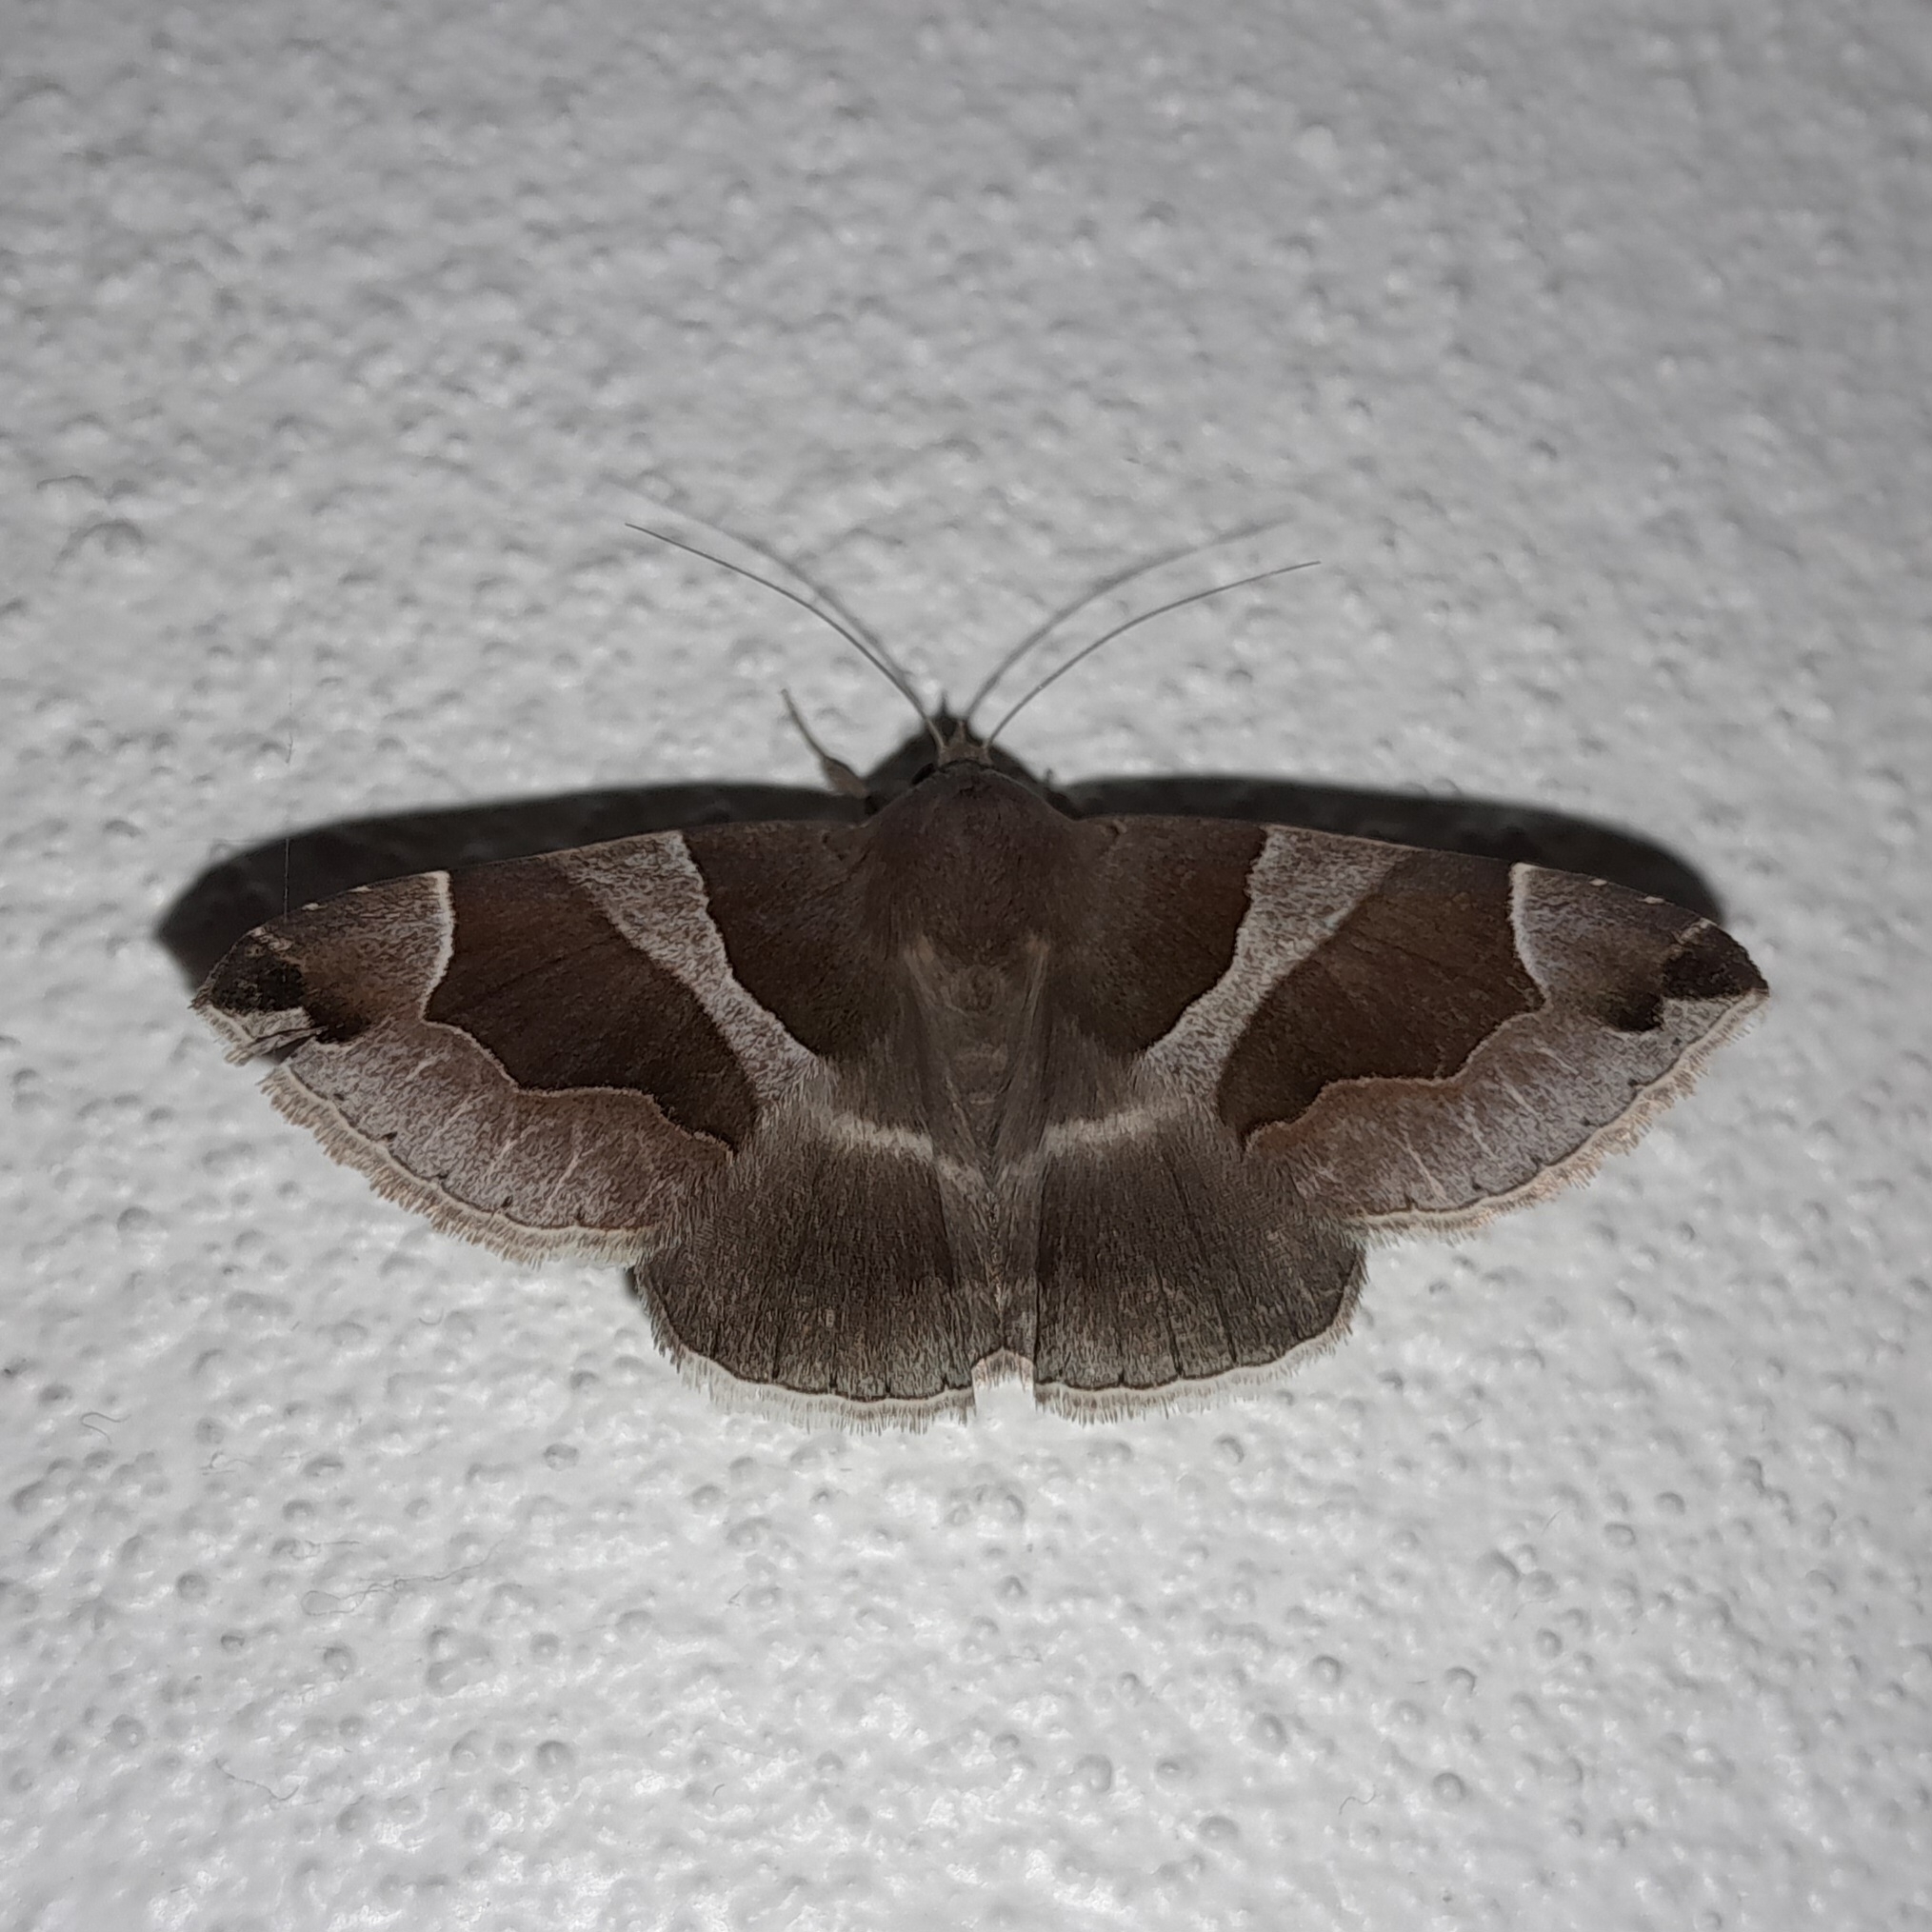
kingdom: Animalia
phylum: Arthropoda
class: Insecta
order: Lepidoptera
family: Erebidae
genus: Dysgonia
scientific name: Dysgonia algira
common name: Passenger
